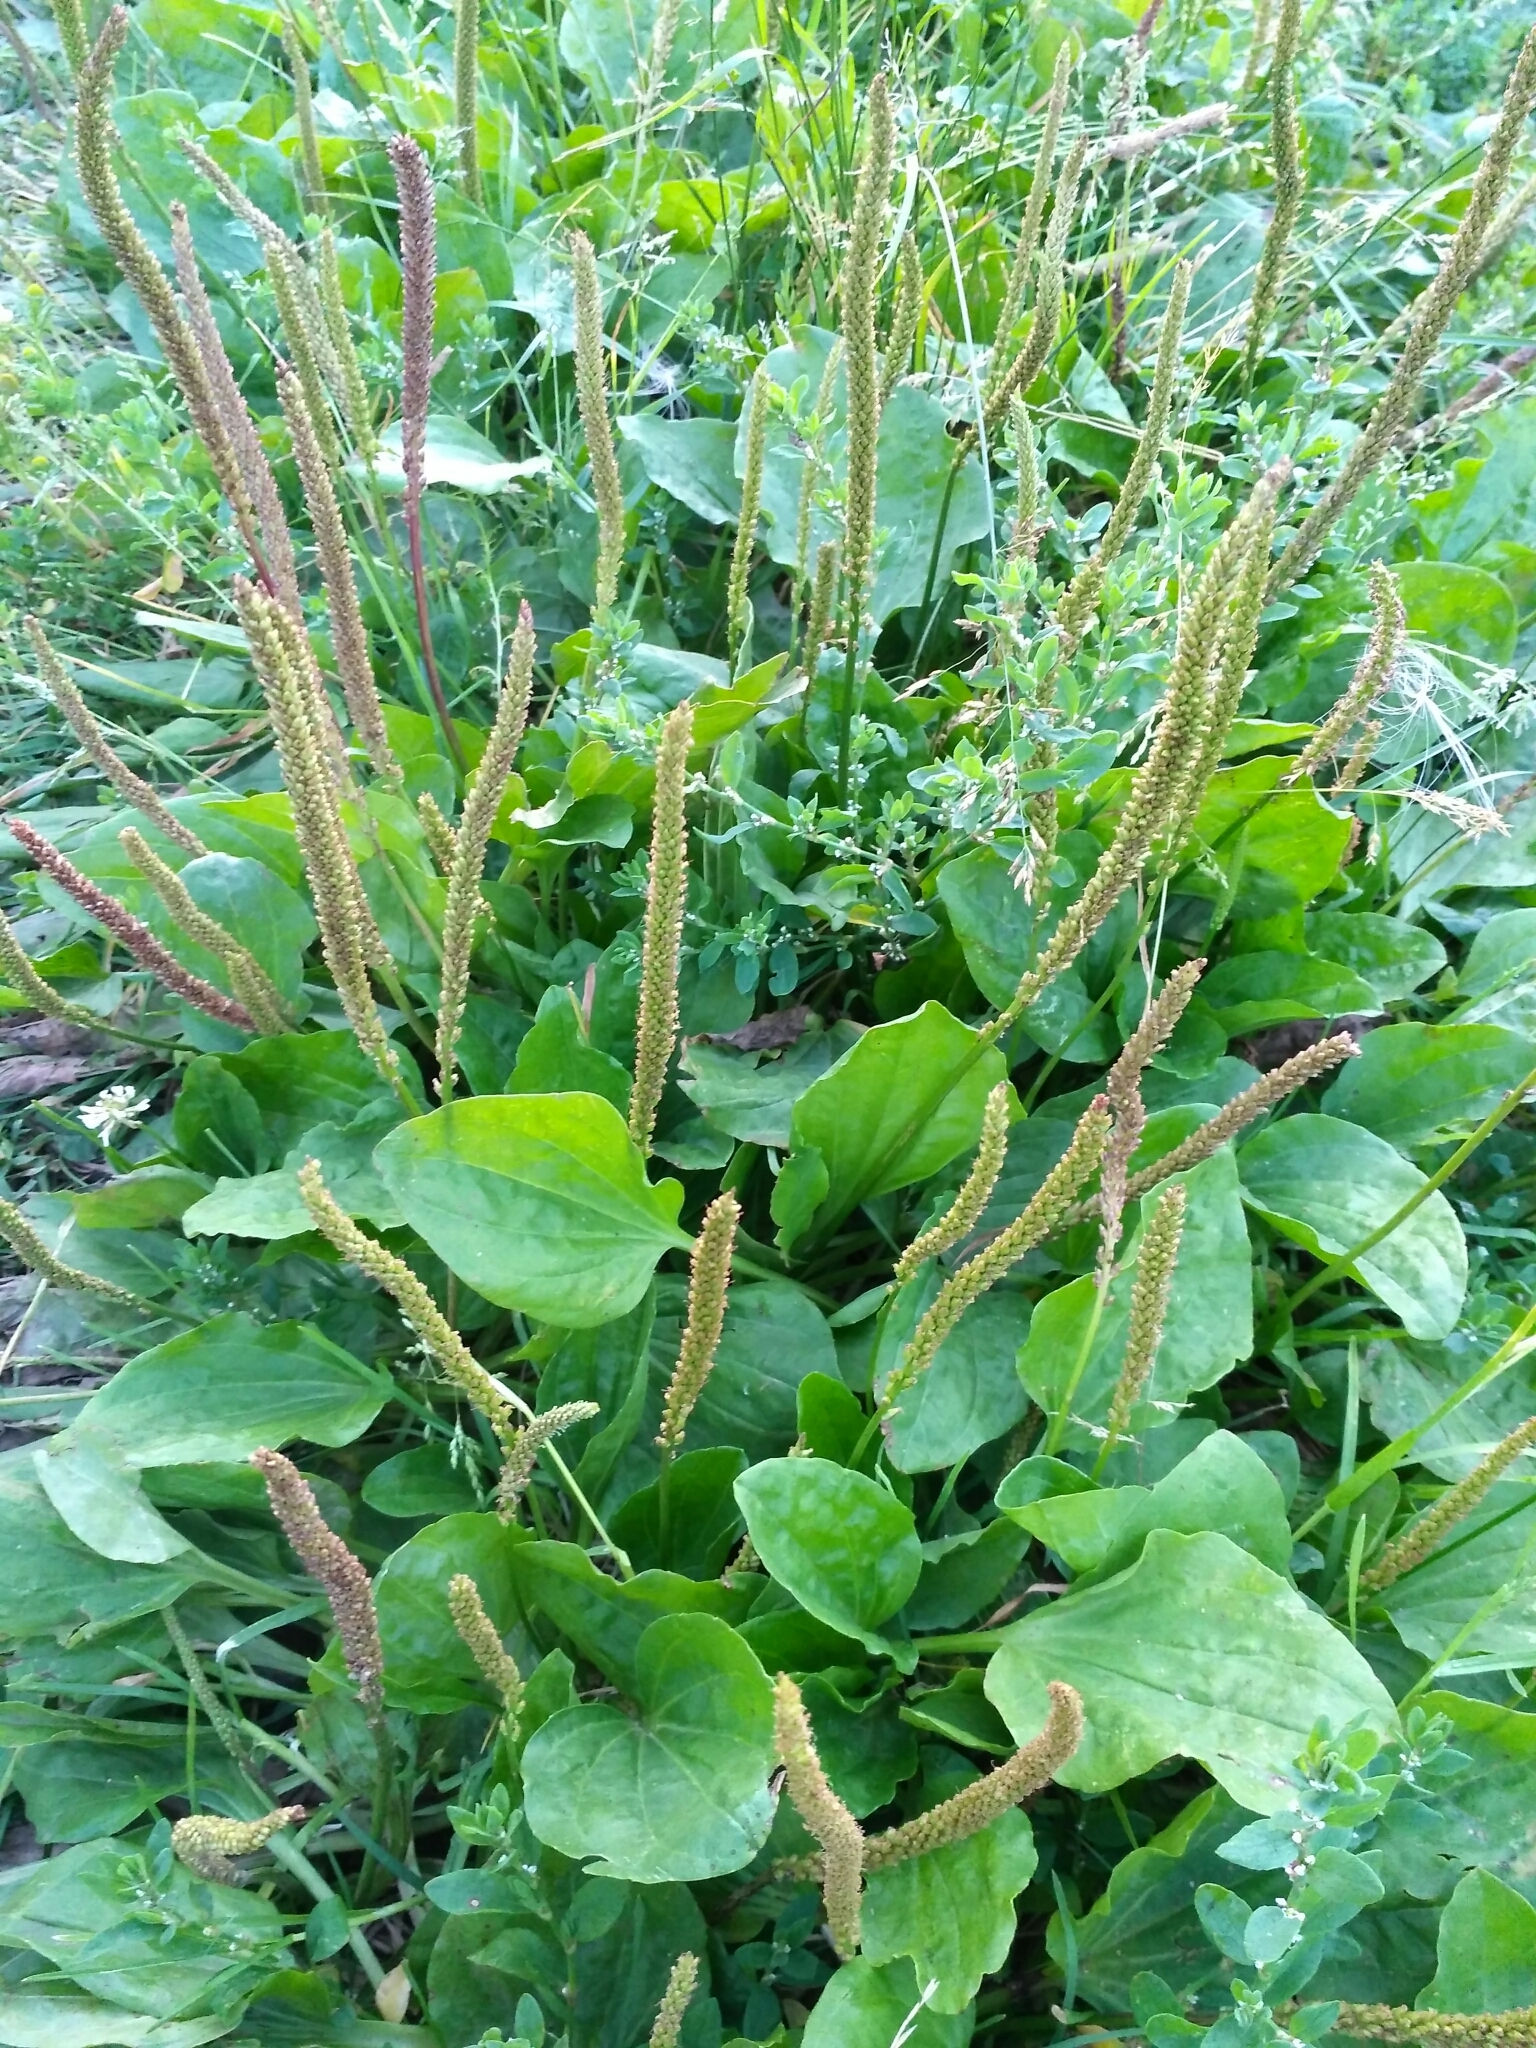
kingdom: Plantae
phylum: Tracheophyta
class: Magnoliopsida
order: Lamiales
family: Plantaginaceae
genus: Plantago
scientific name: Plantago major
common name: Common plantain
